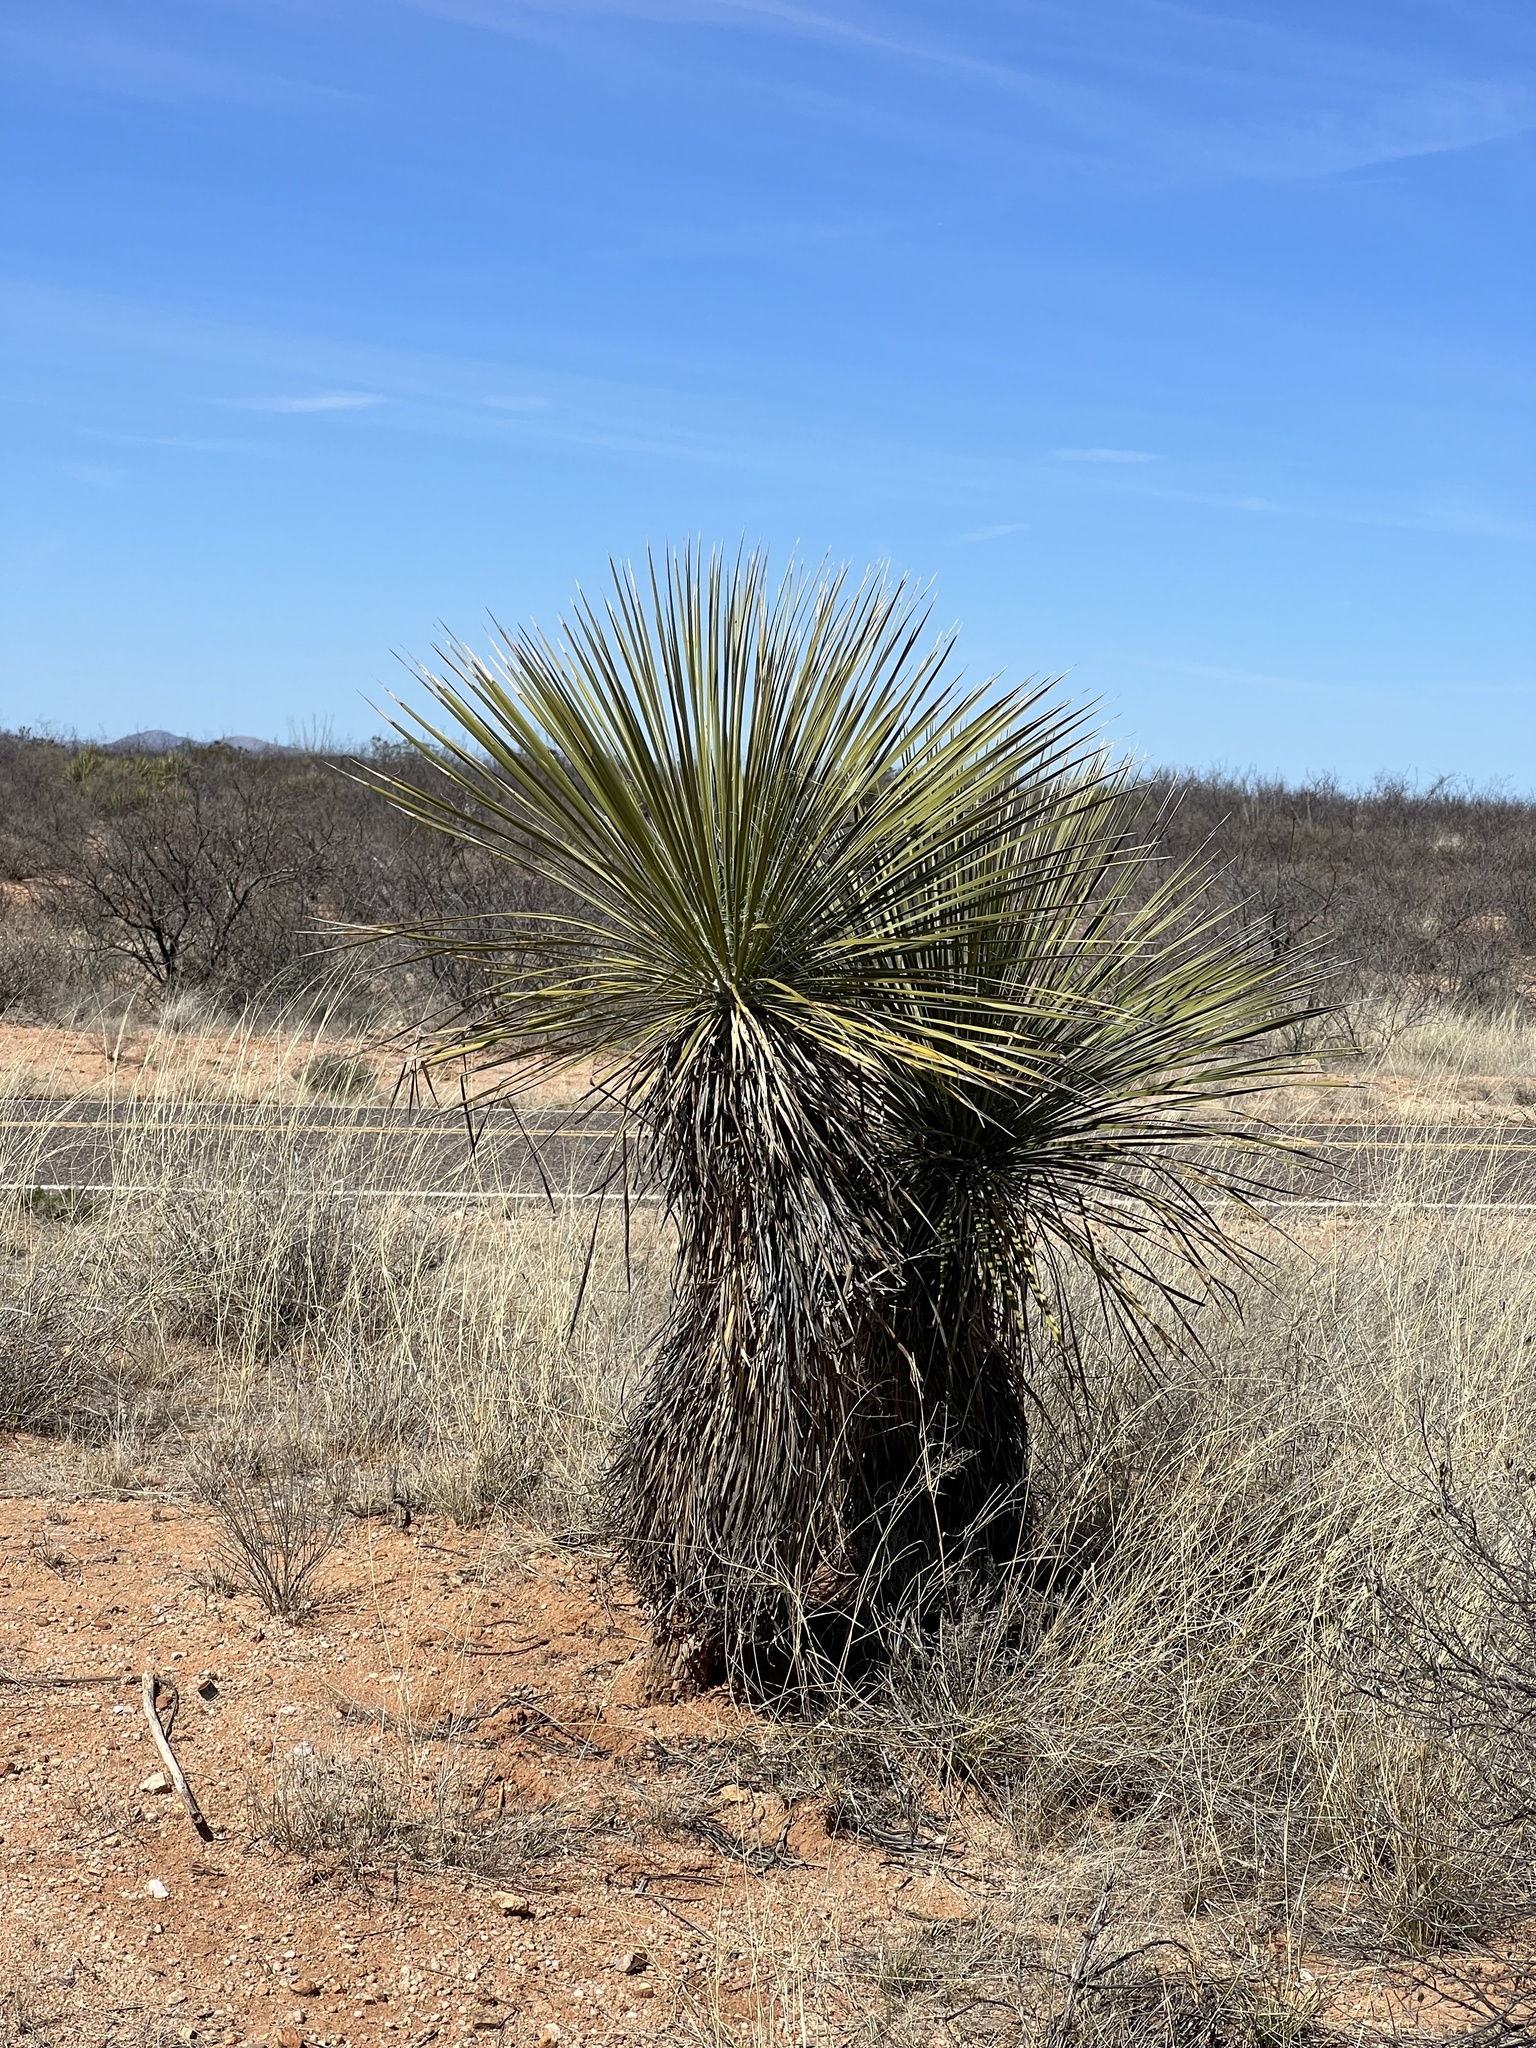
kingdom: Plantae
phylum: Tracheophyta
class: Liliopsida
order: Asparagales
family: Asparagaceae
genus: Yucca
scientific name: Yucca elata
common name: Palmella
